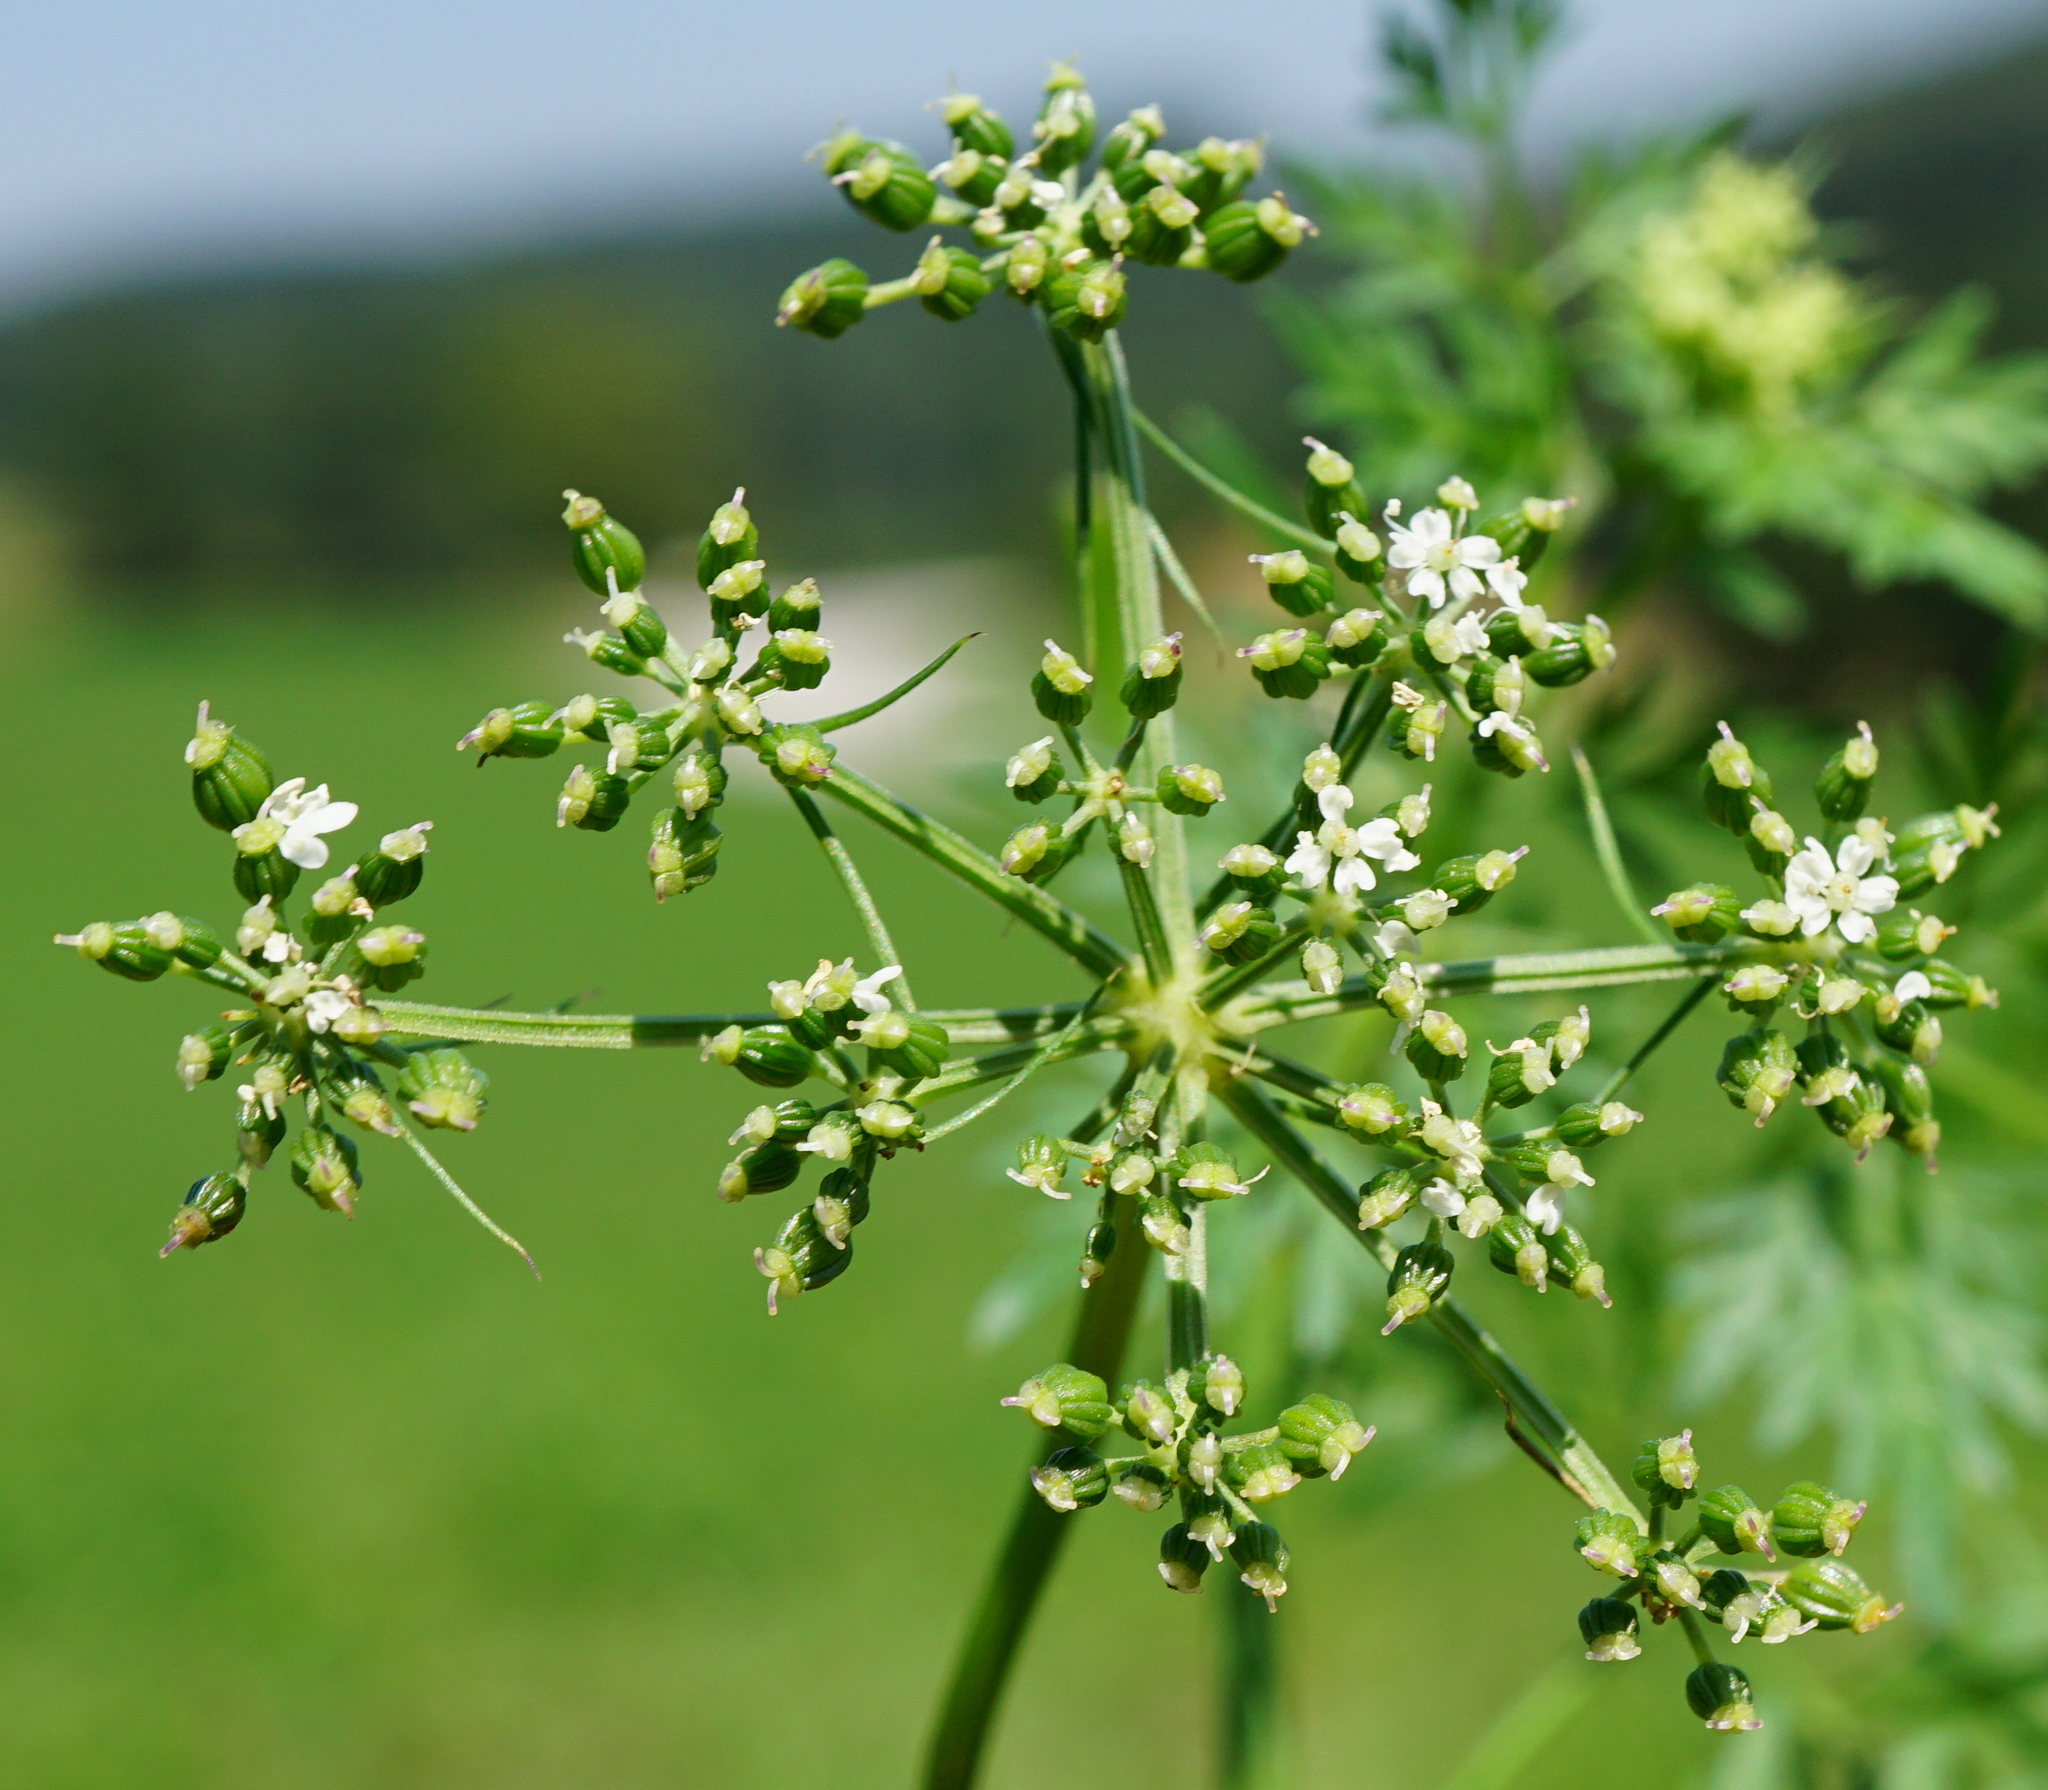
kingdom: Plantae
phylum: Tracheophyta
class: Magnoliopsida
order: Apiales
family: Apiaceae
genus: Aethusa
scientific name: Aethusa cynapium
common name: Fool's parsley
